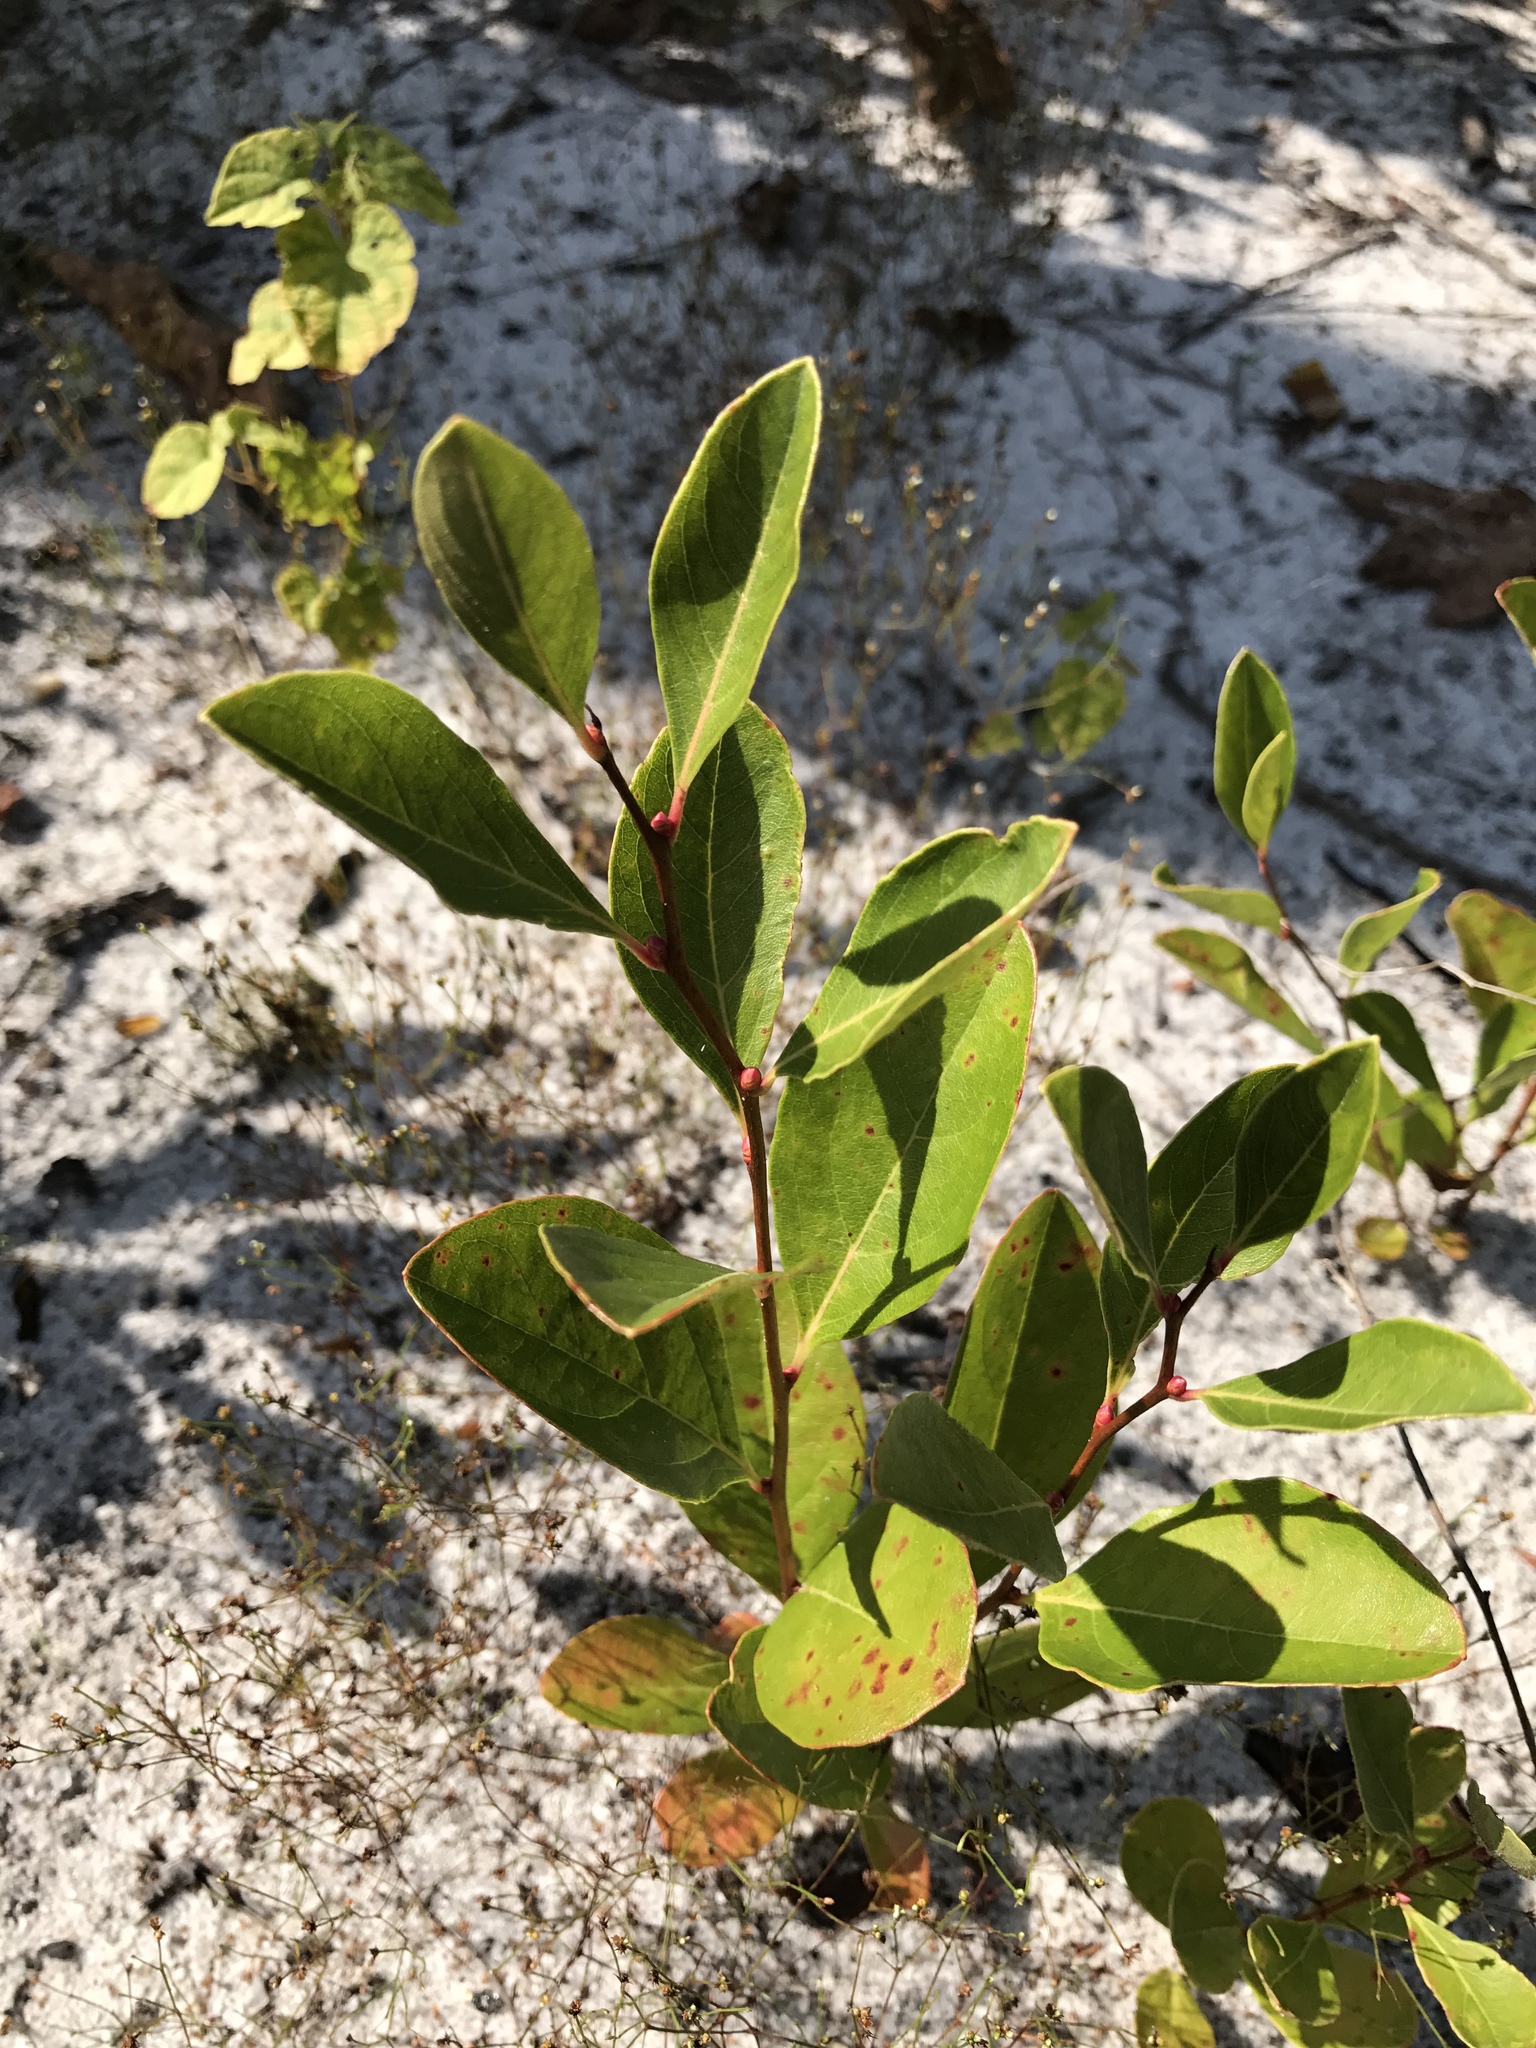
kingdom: Plantae
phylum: Tracheophyta
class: Magnoliopsida
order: Ericales
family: Ericaceae
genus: Lyonia
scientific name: Lyonia mariana
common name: Staggerbush
